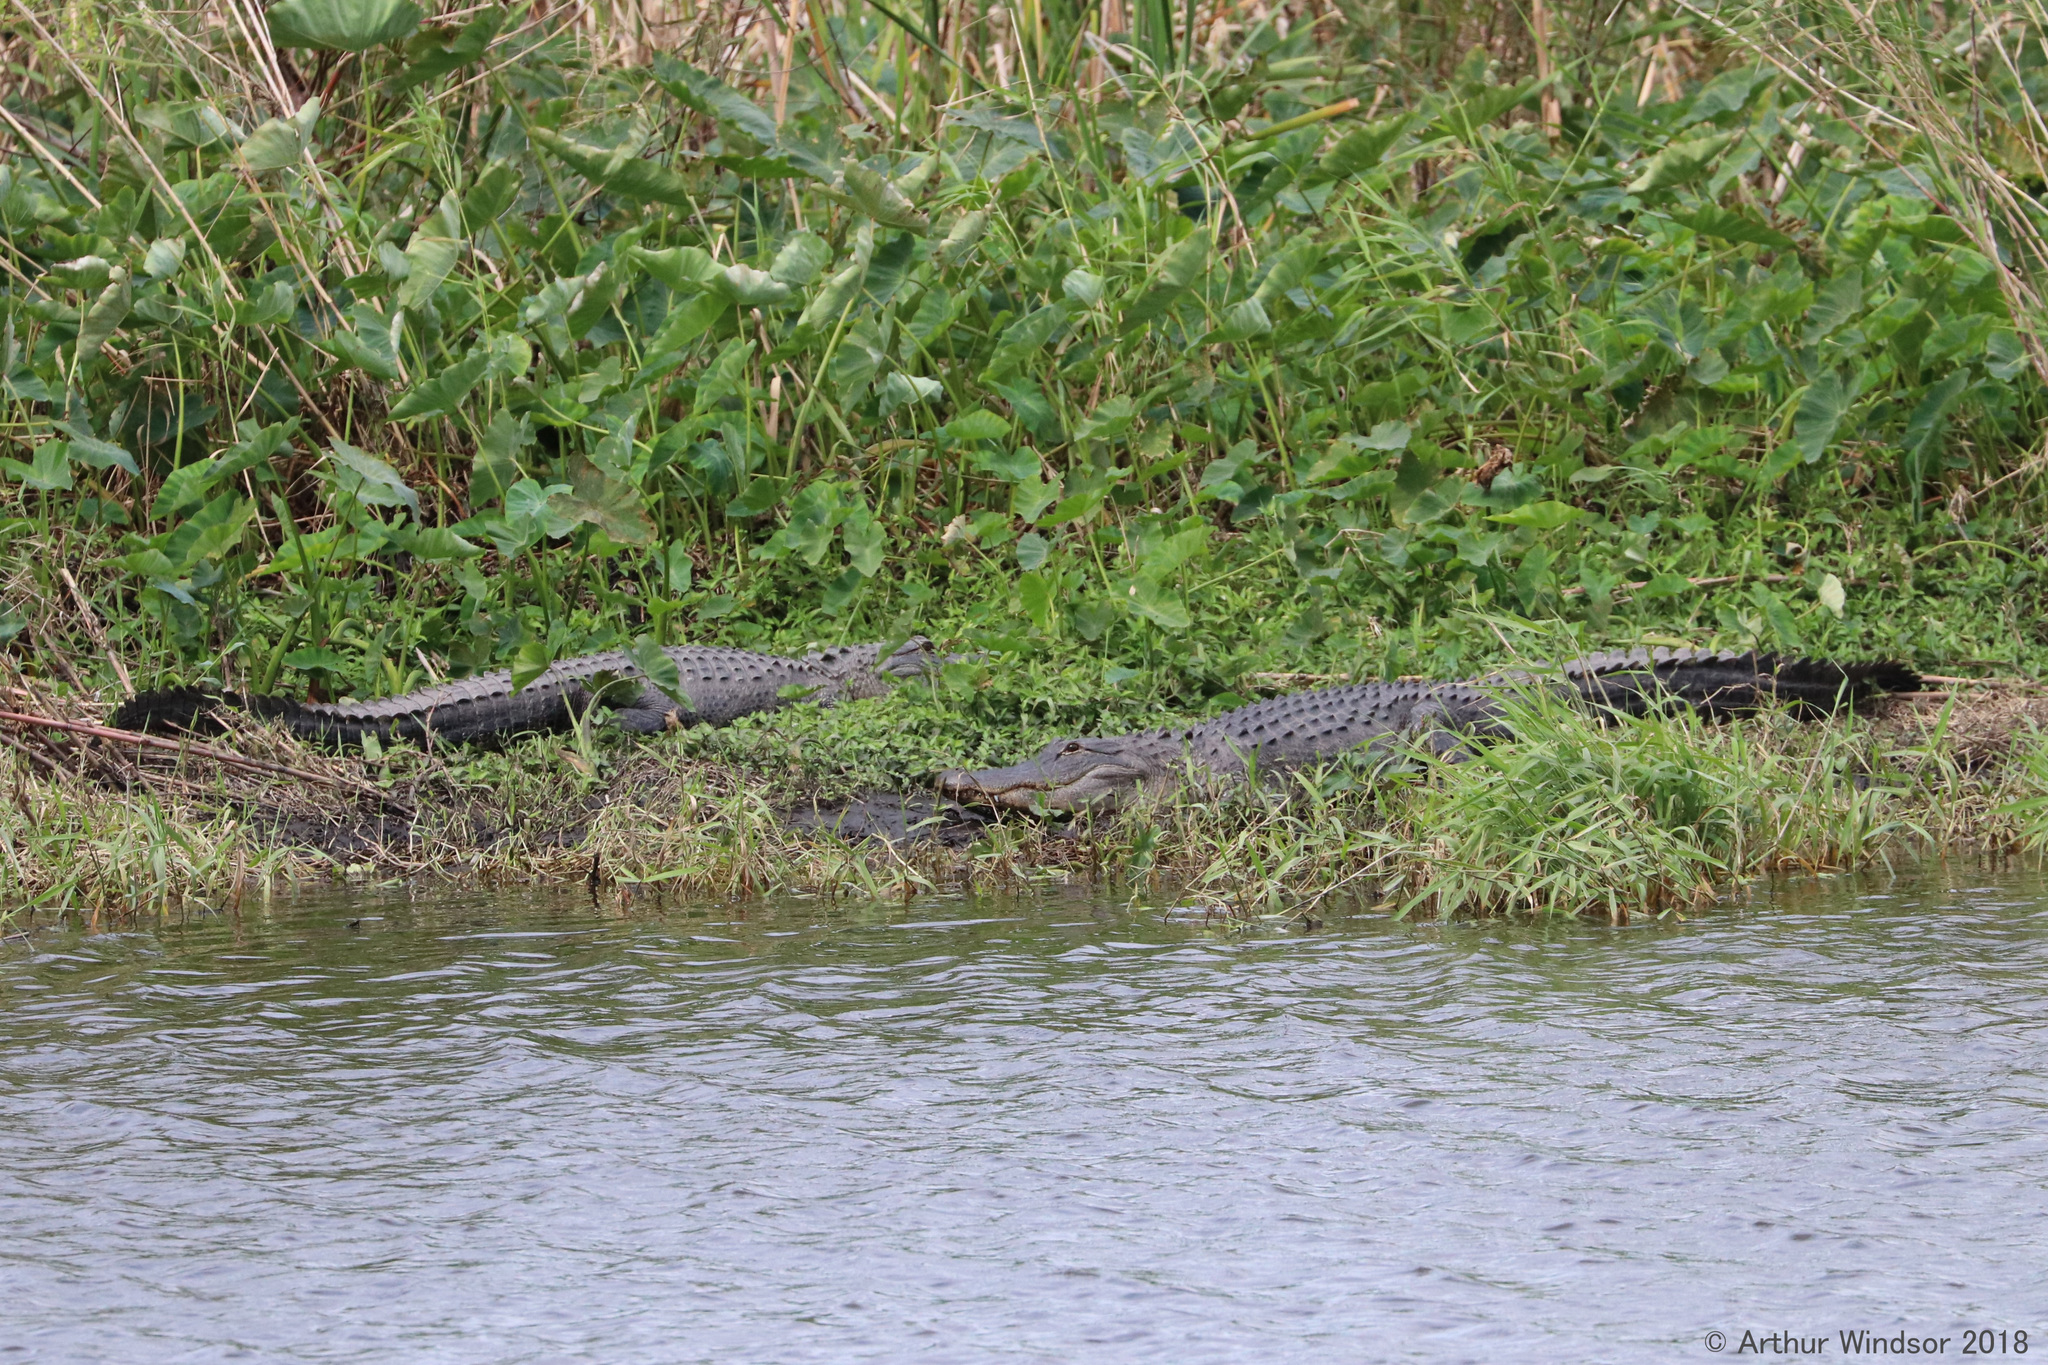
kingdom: Animalia
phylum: Chordata
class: Crocodylia
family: Alligatoridae
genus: Alligator
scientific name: Alligator mississippiensis
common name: American alligator
